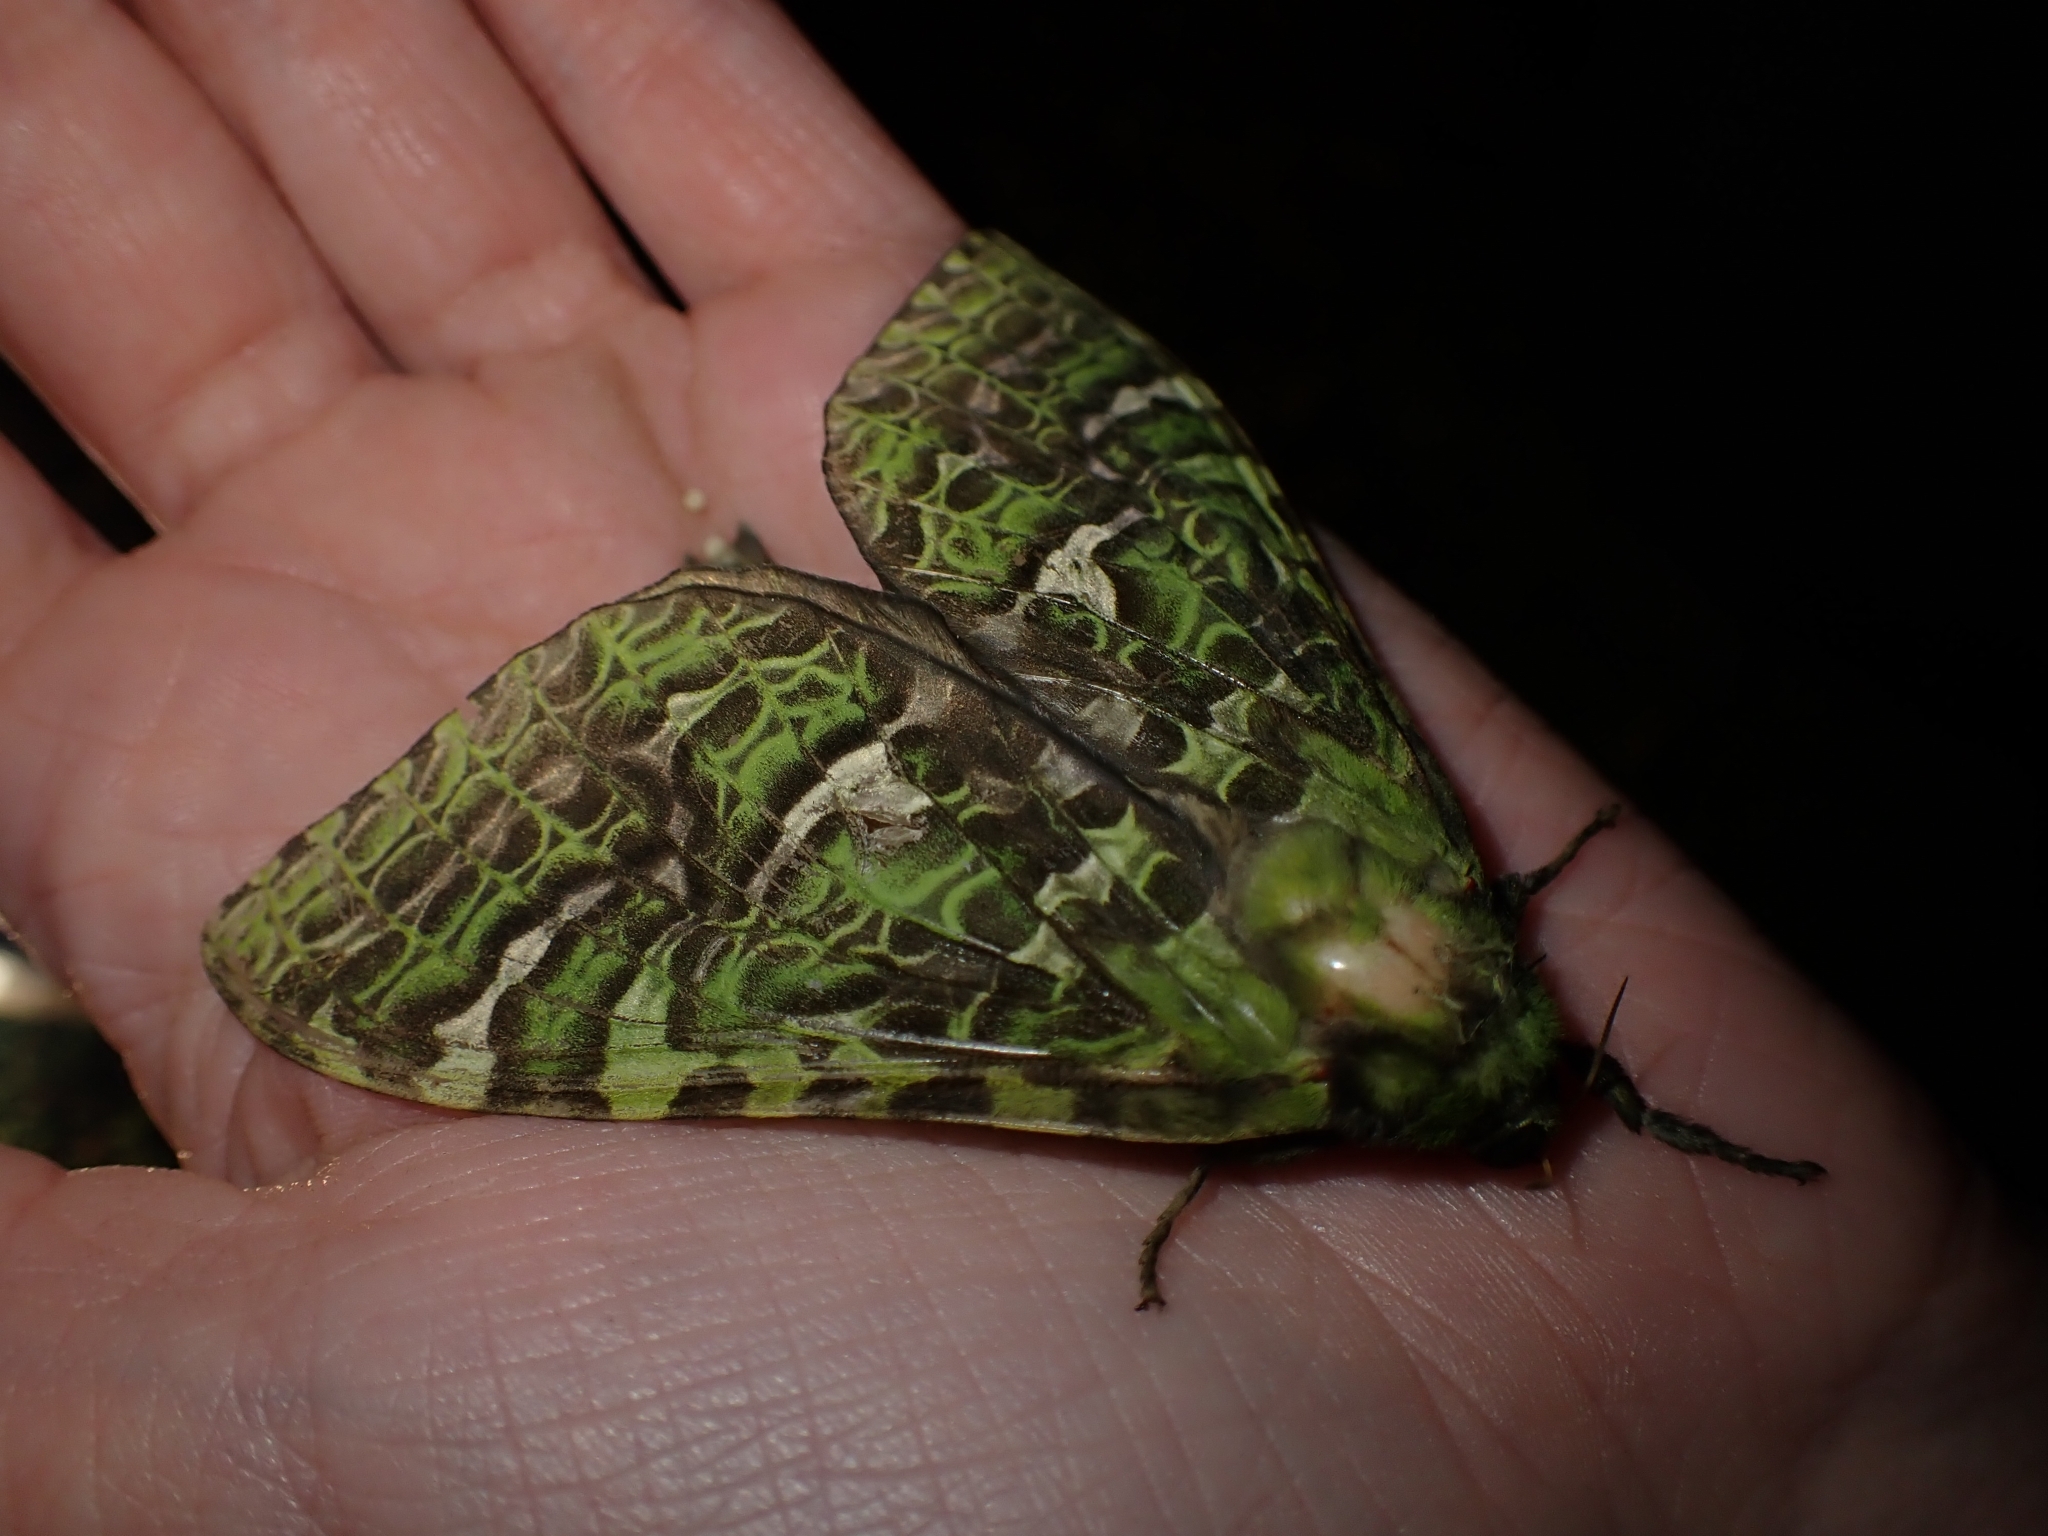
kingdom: Animalia
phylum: Arthropoda
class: Insecta
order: Lepidoptera
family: Hepialidae
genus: Aenetus
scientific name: Aenetus virescens
